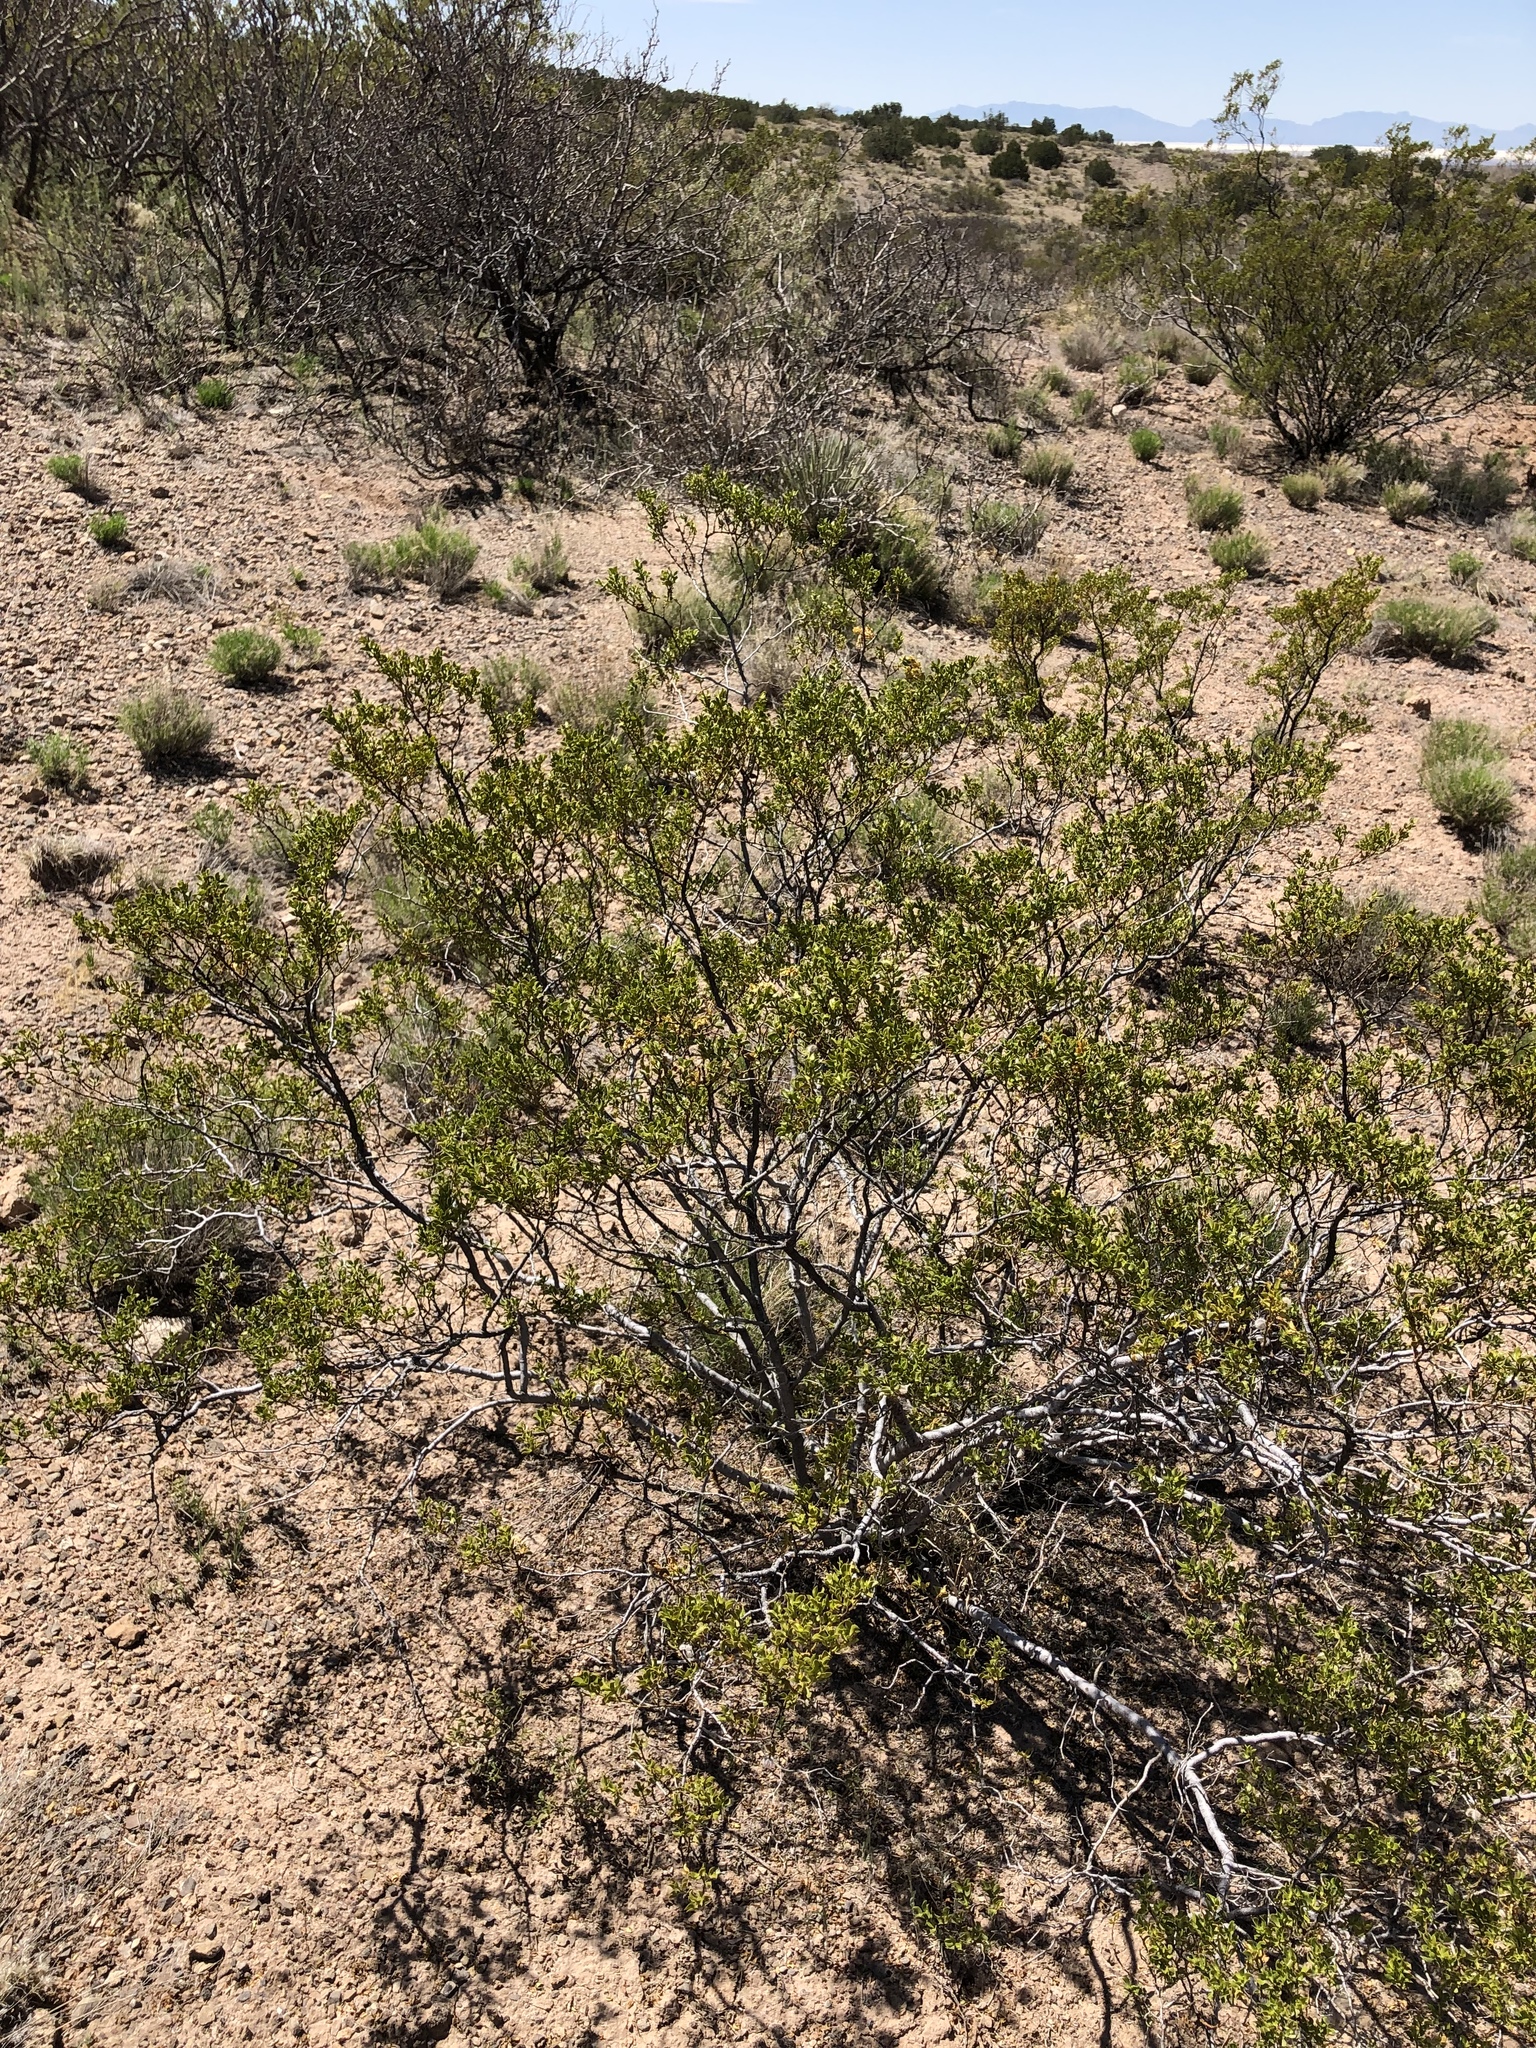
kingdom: Plantae
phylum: Tracheophyta
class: Magnoliopsida
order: Zygophyllales
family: Zygophyllaceae
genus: Larrea
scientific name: Larrea tridentata
